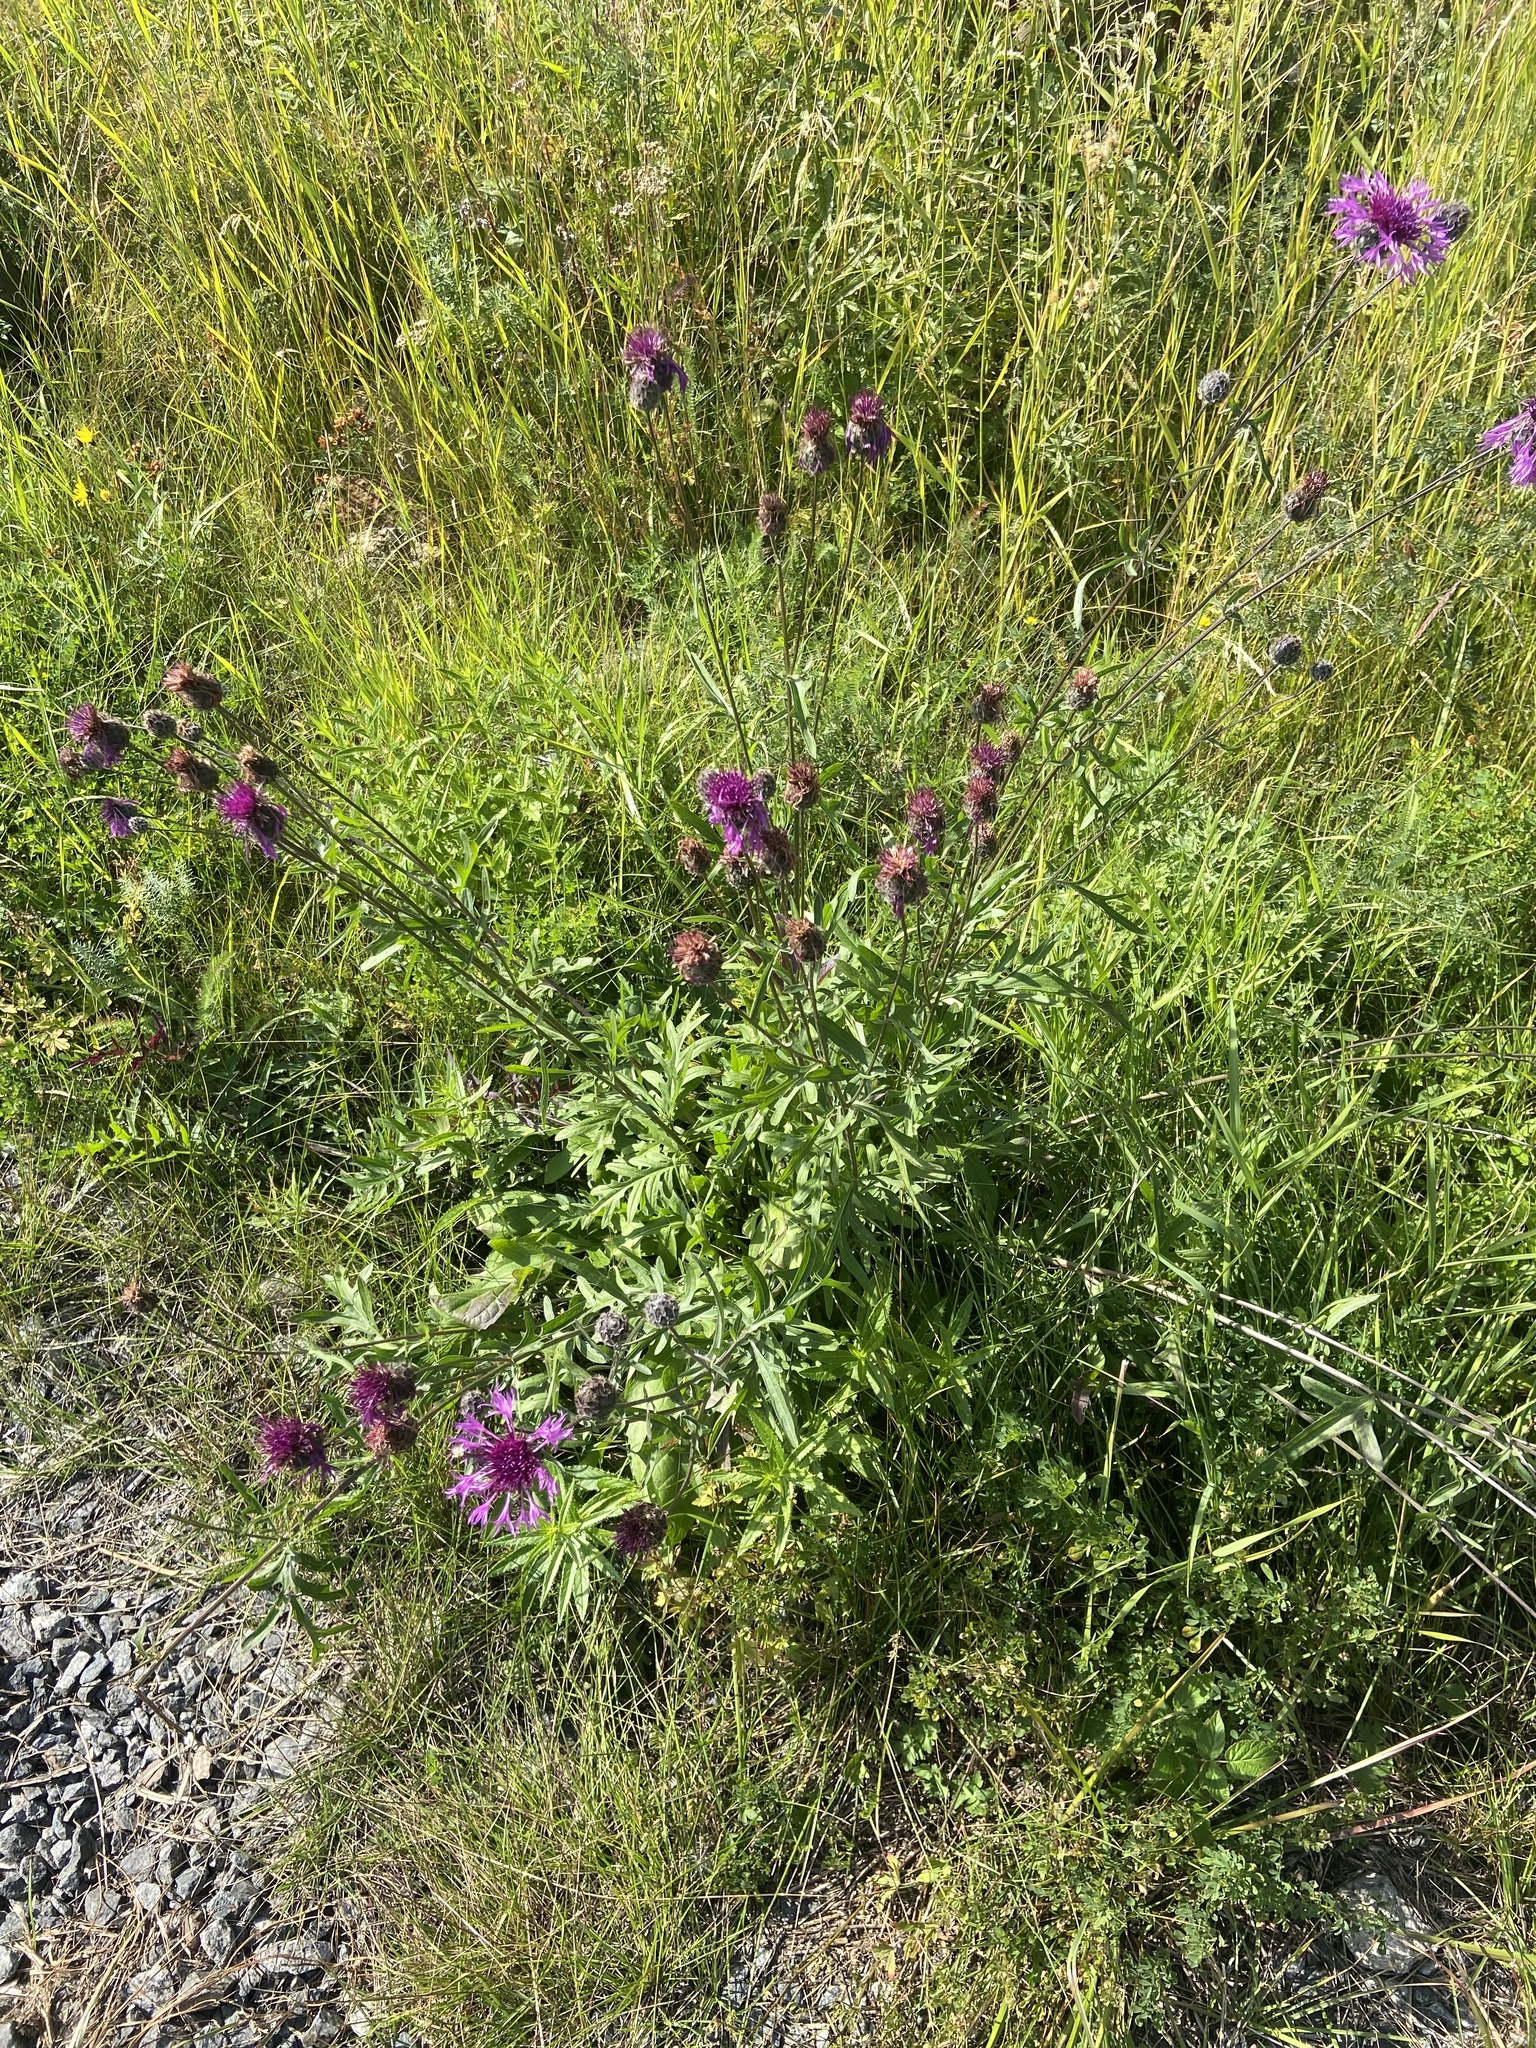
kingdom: Plantae
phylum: Tracheophyta
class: Magnoliopsida
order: Asterales
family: Asteraceae
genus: Centaurea
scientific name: Centaurea scabiosa
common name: Greater knapweed
